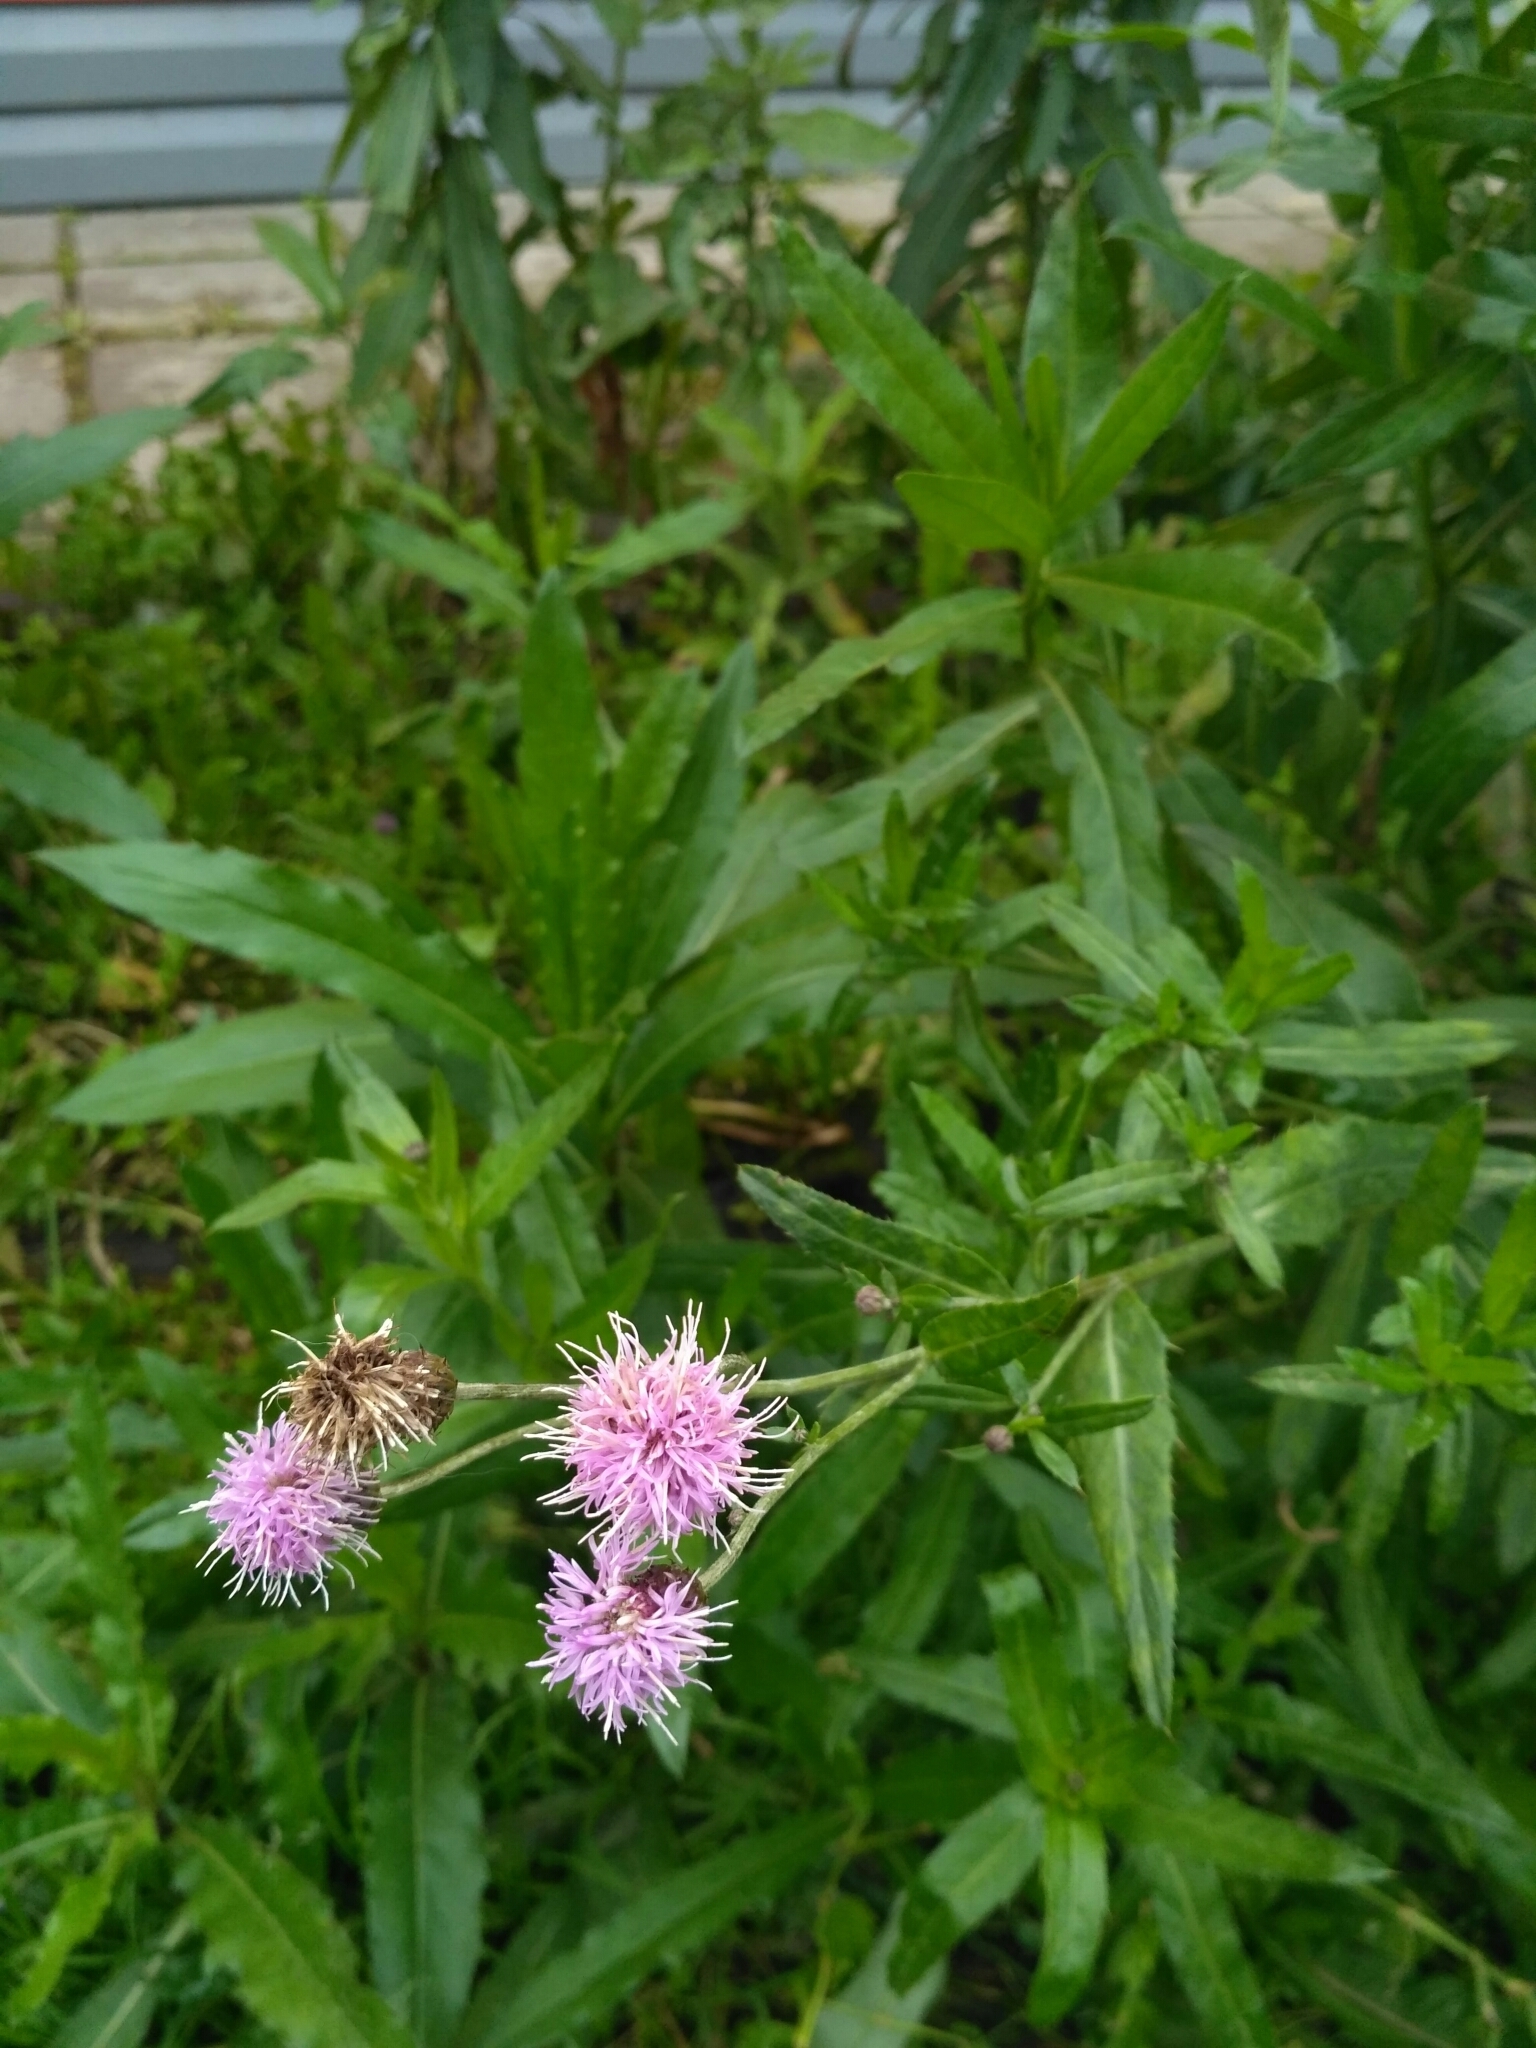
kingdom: Plantae
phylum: Tracheophyta
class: Magnoliopsida
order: Asterales
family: Asteraceae
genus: Cirsium
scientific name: Cirsium arvense
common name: Creeping thistle
